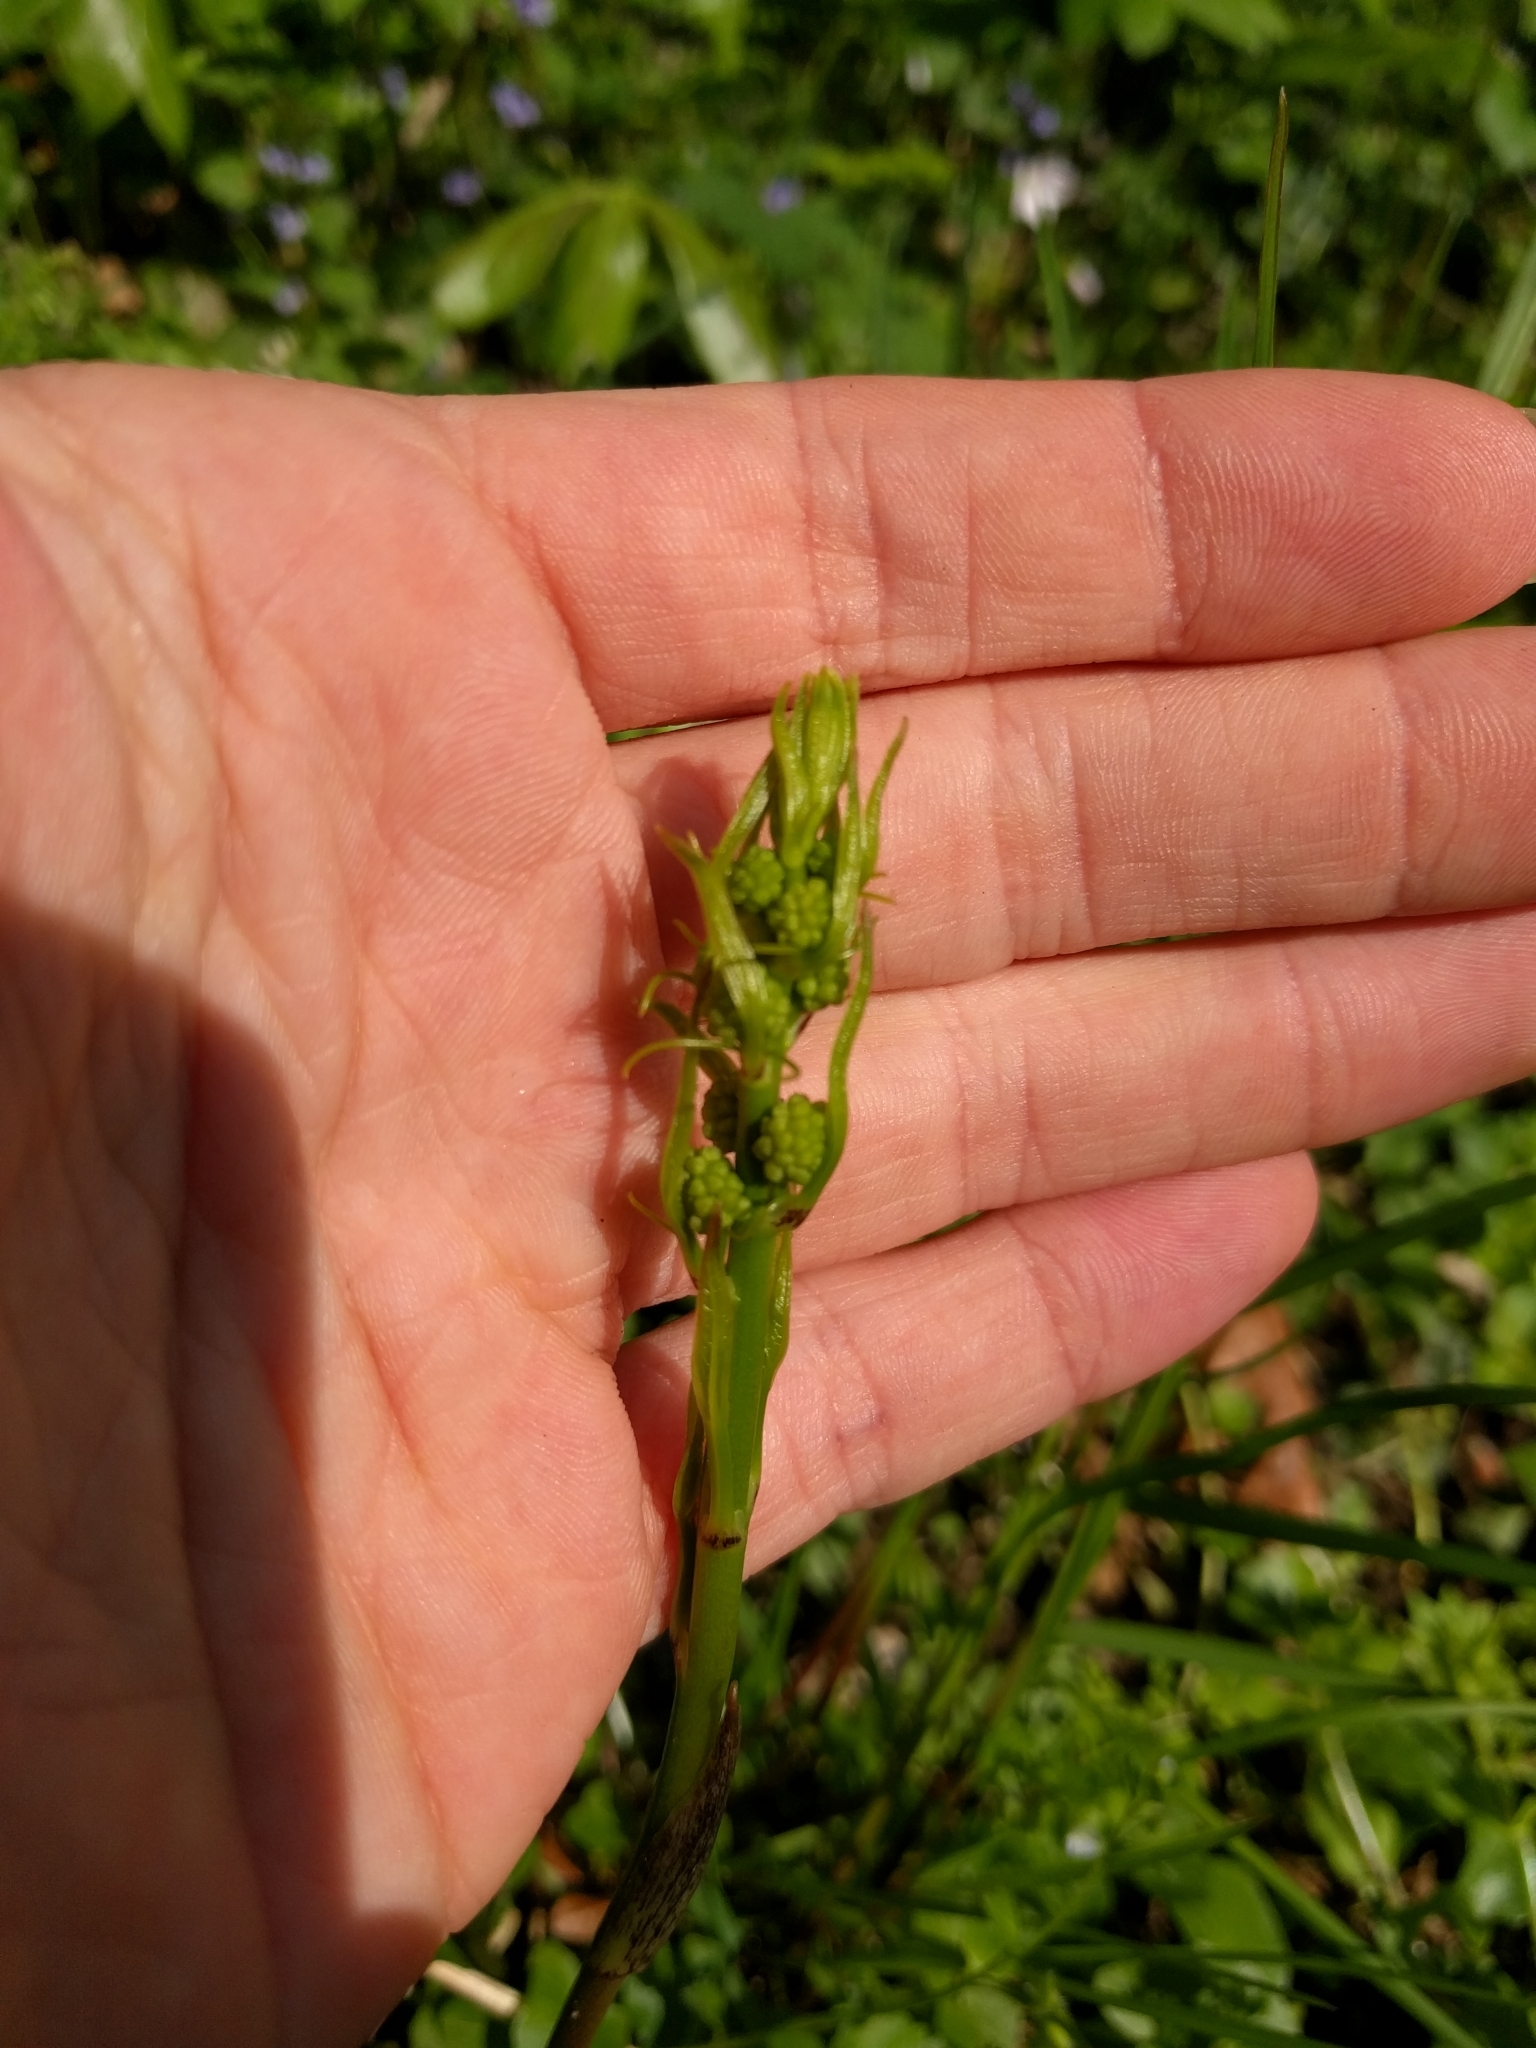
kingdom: Plantae
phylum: Tracheophyta
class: Liliopsida
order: Liliales
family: Smilacaceae
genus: Smilax
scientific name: Smilax herbacea
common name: Jacob's-ladder
